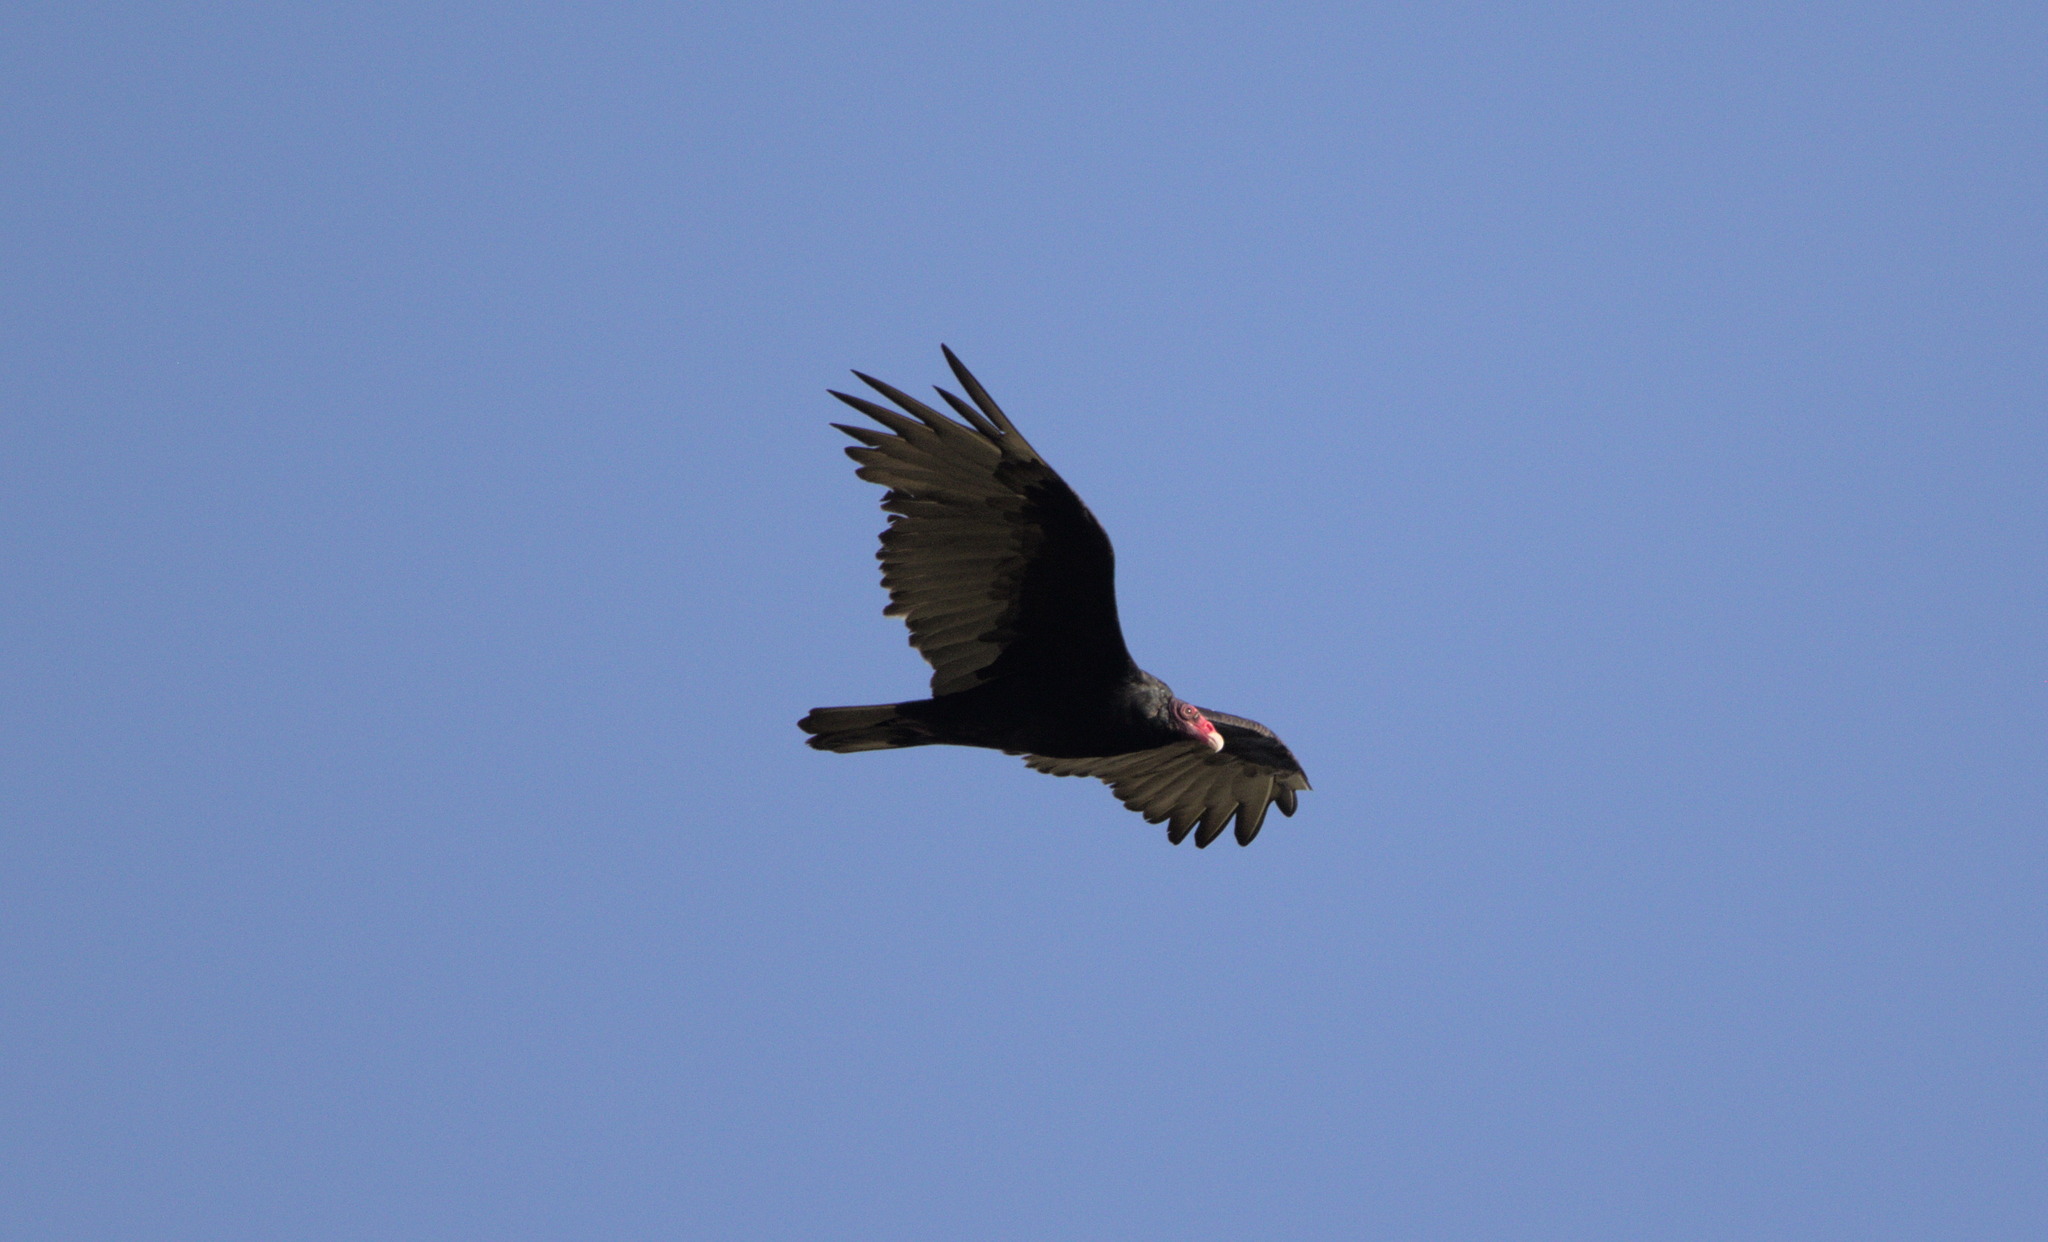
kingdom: Animalia
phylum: Chordata
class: Aves
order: Accipitriformes
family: Cathartidae
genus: Cathartes
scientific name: Cathartes aura
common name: Turkey vulture
